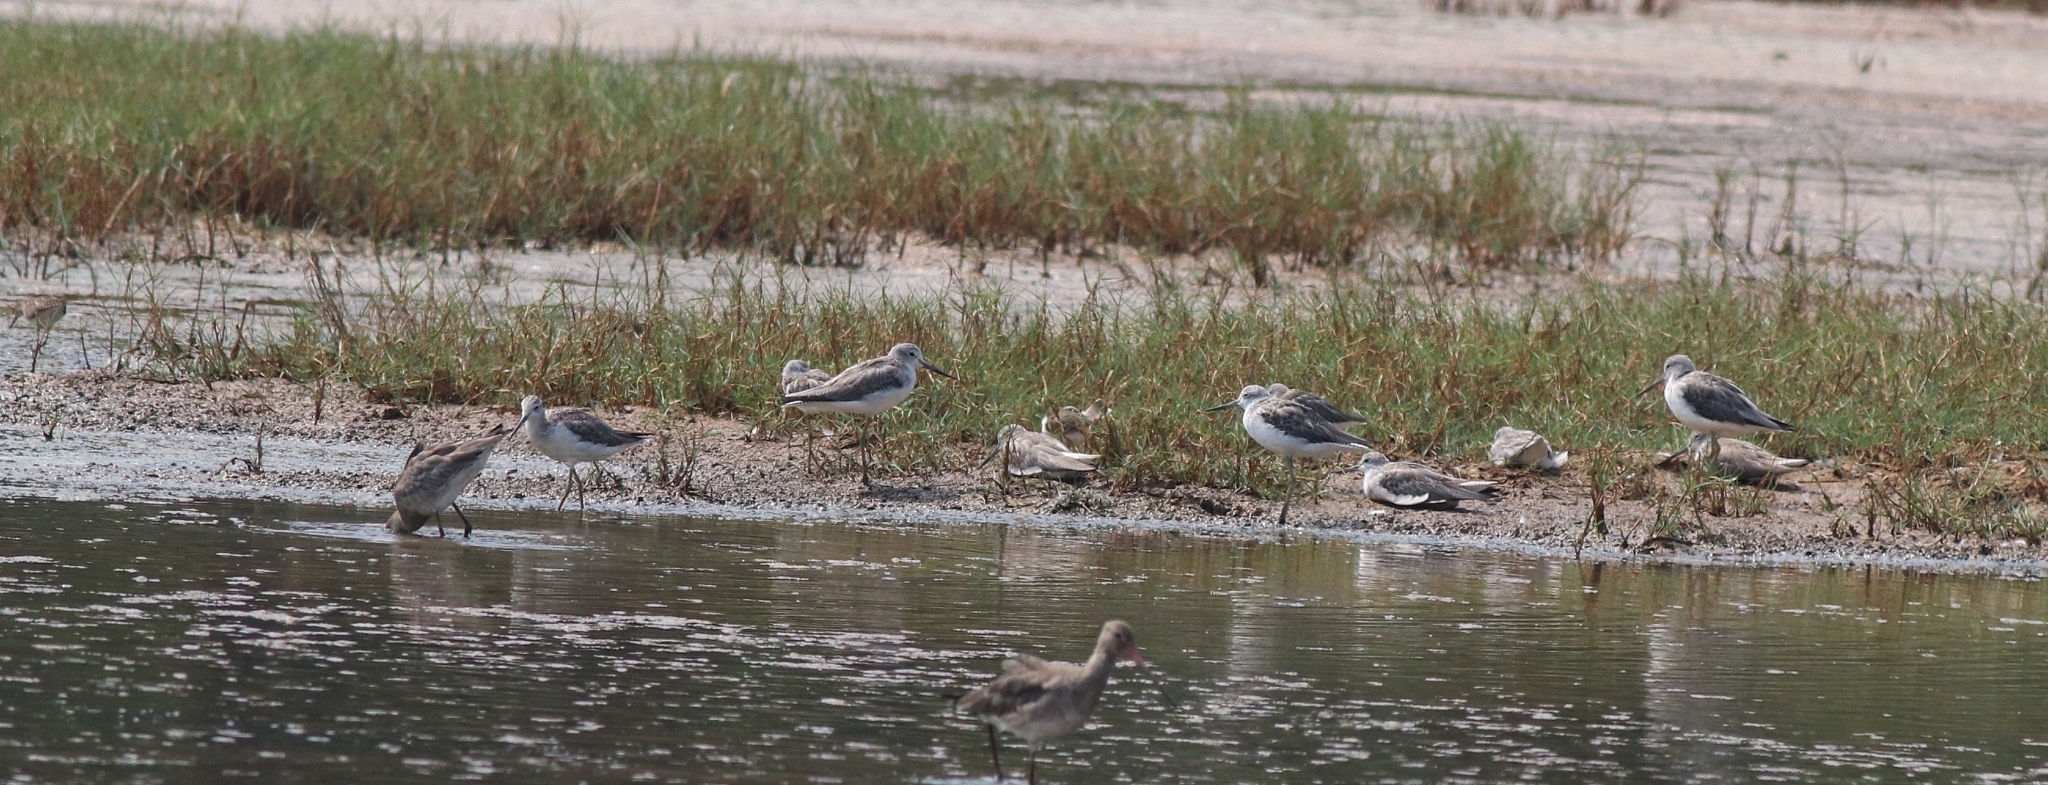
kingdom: Animalia
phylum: Chordata
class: Aves
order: Charadriiformes
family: Scolopacidae
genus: Tringa
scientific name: Tringa nebularia
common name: Common greenshank
